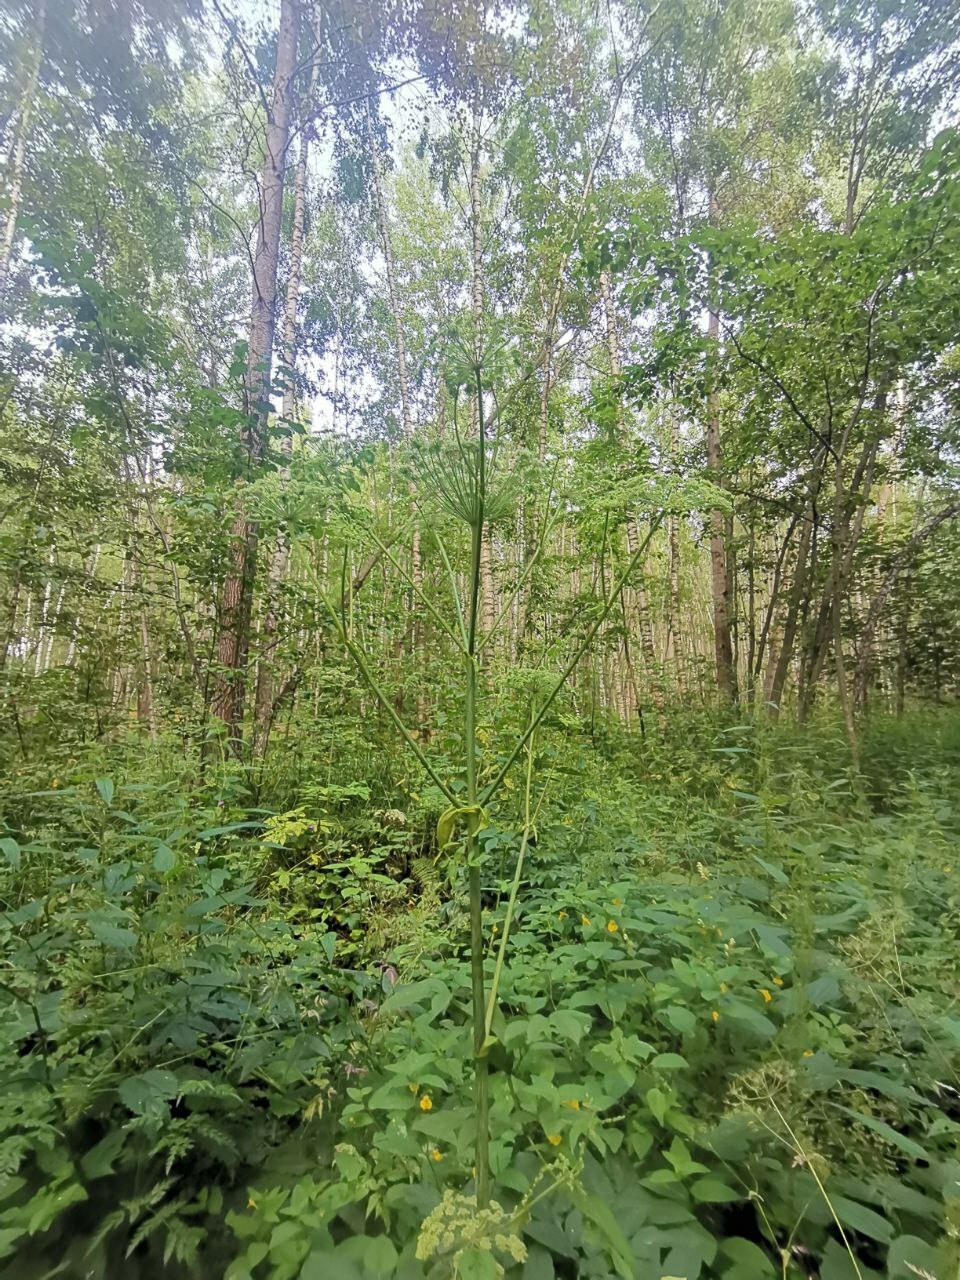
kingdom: Plantae
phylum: Tracheophyta
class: Magnoliopsida
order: Apiales
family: Apiaceae
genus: Angelica
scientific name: Angelica sylvestris
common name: Wild angelica
